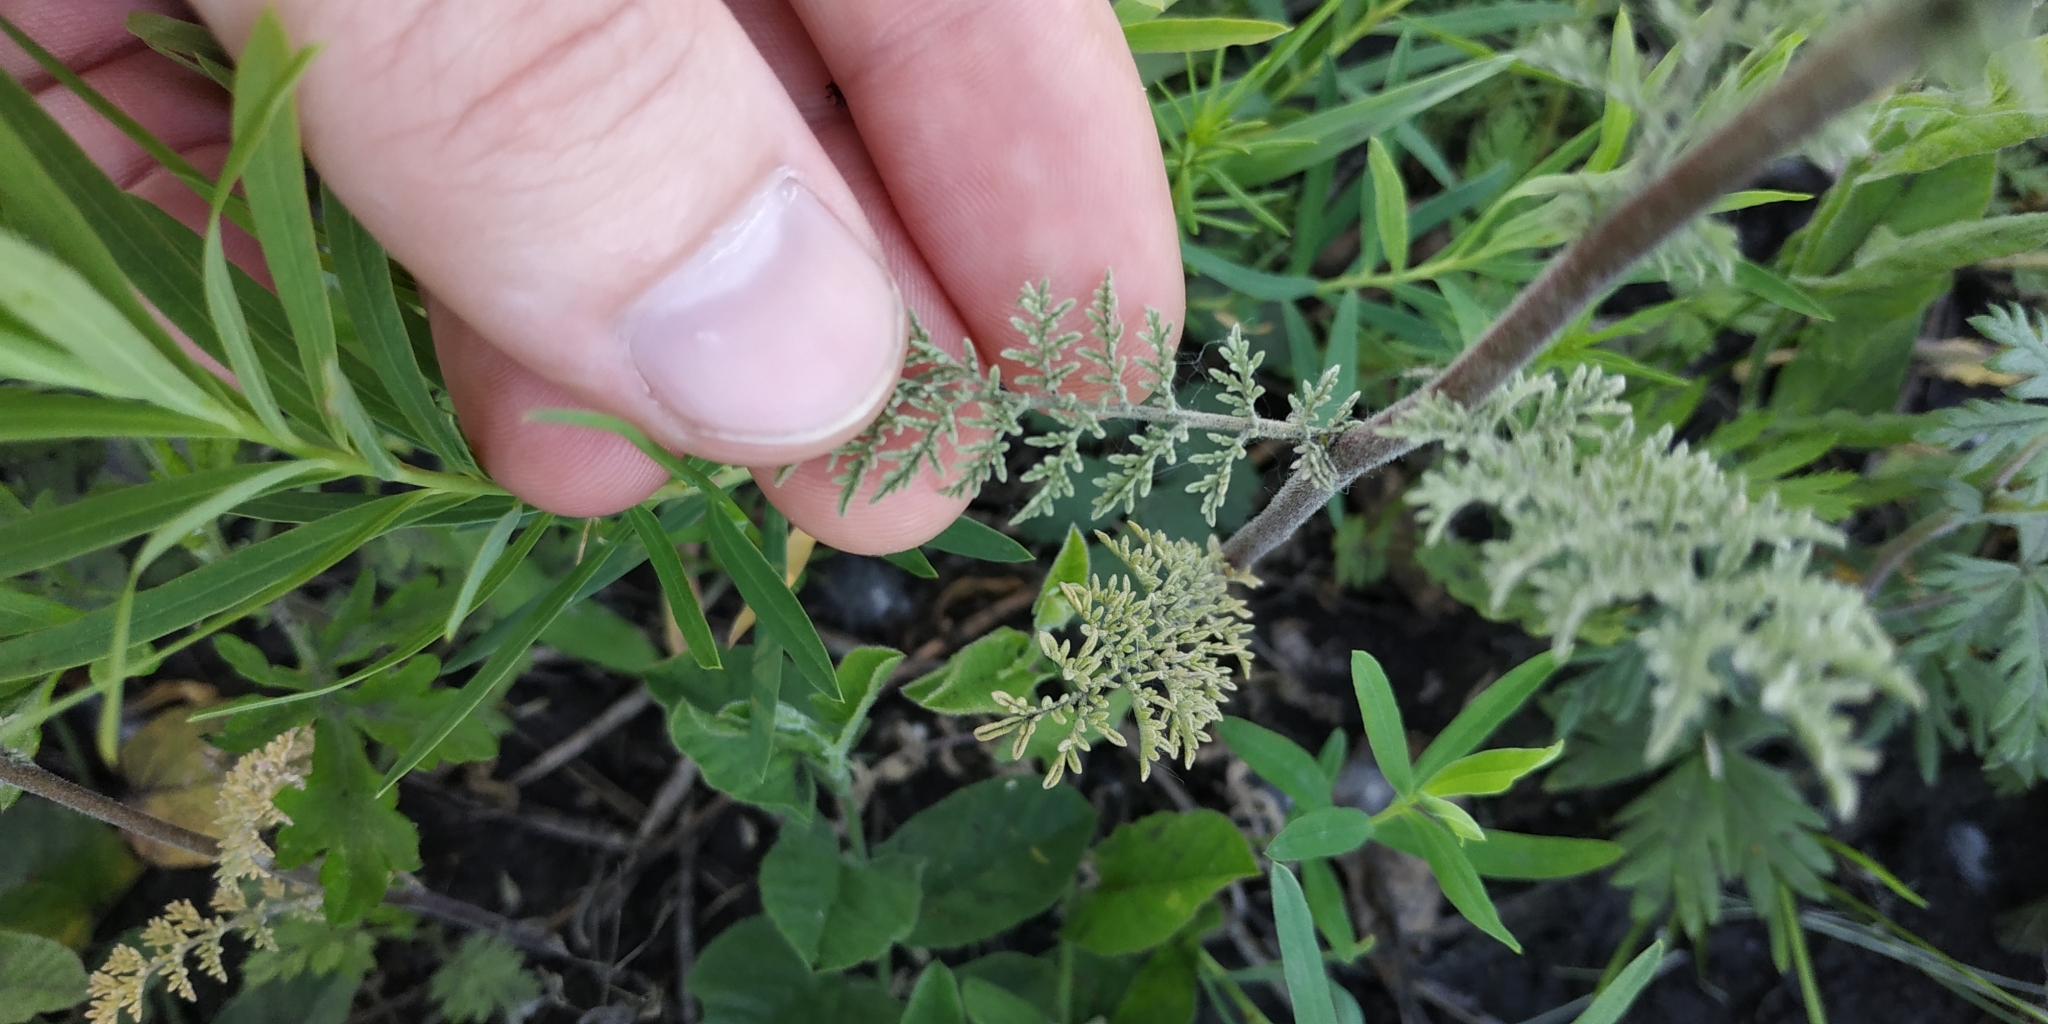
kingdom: Plantae
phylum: Tracheophyta
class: Magnoliopsida
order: Brassicales
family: Brassicaceae
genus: Descurainia
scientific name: Descurainia sophia
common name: Flixweed
